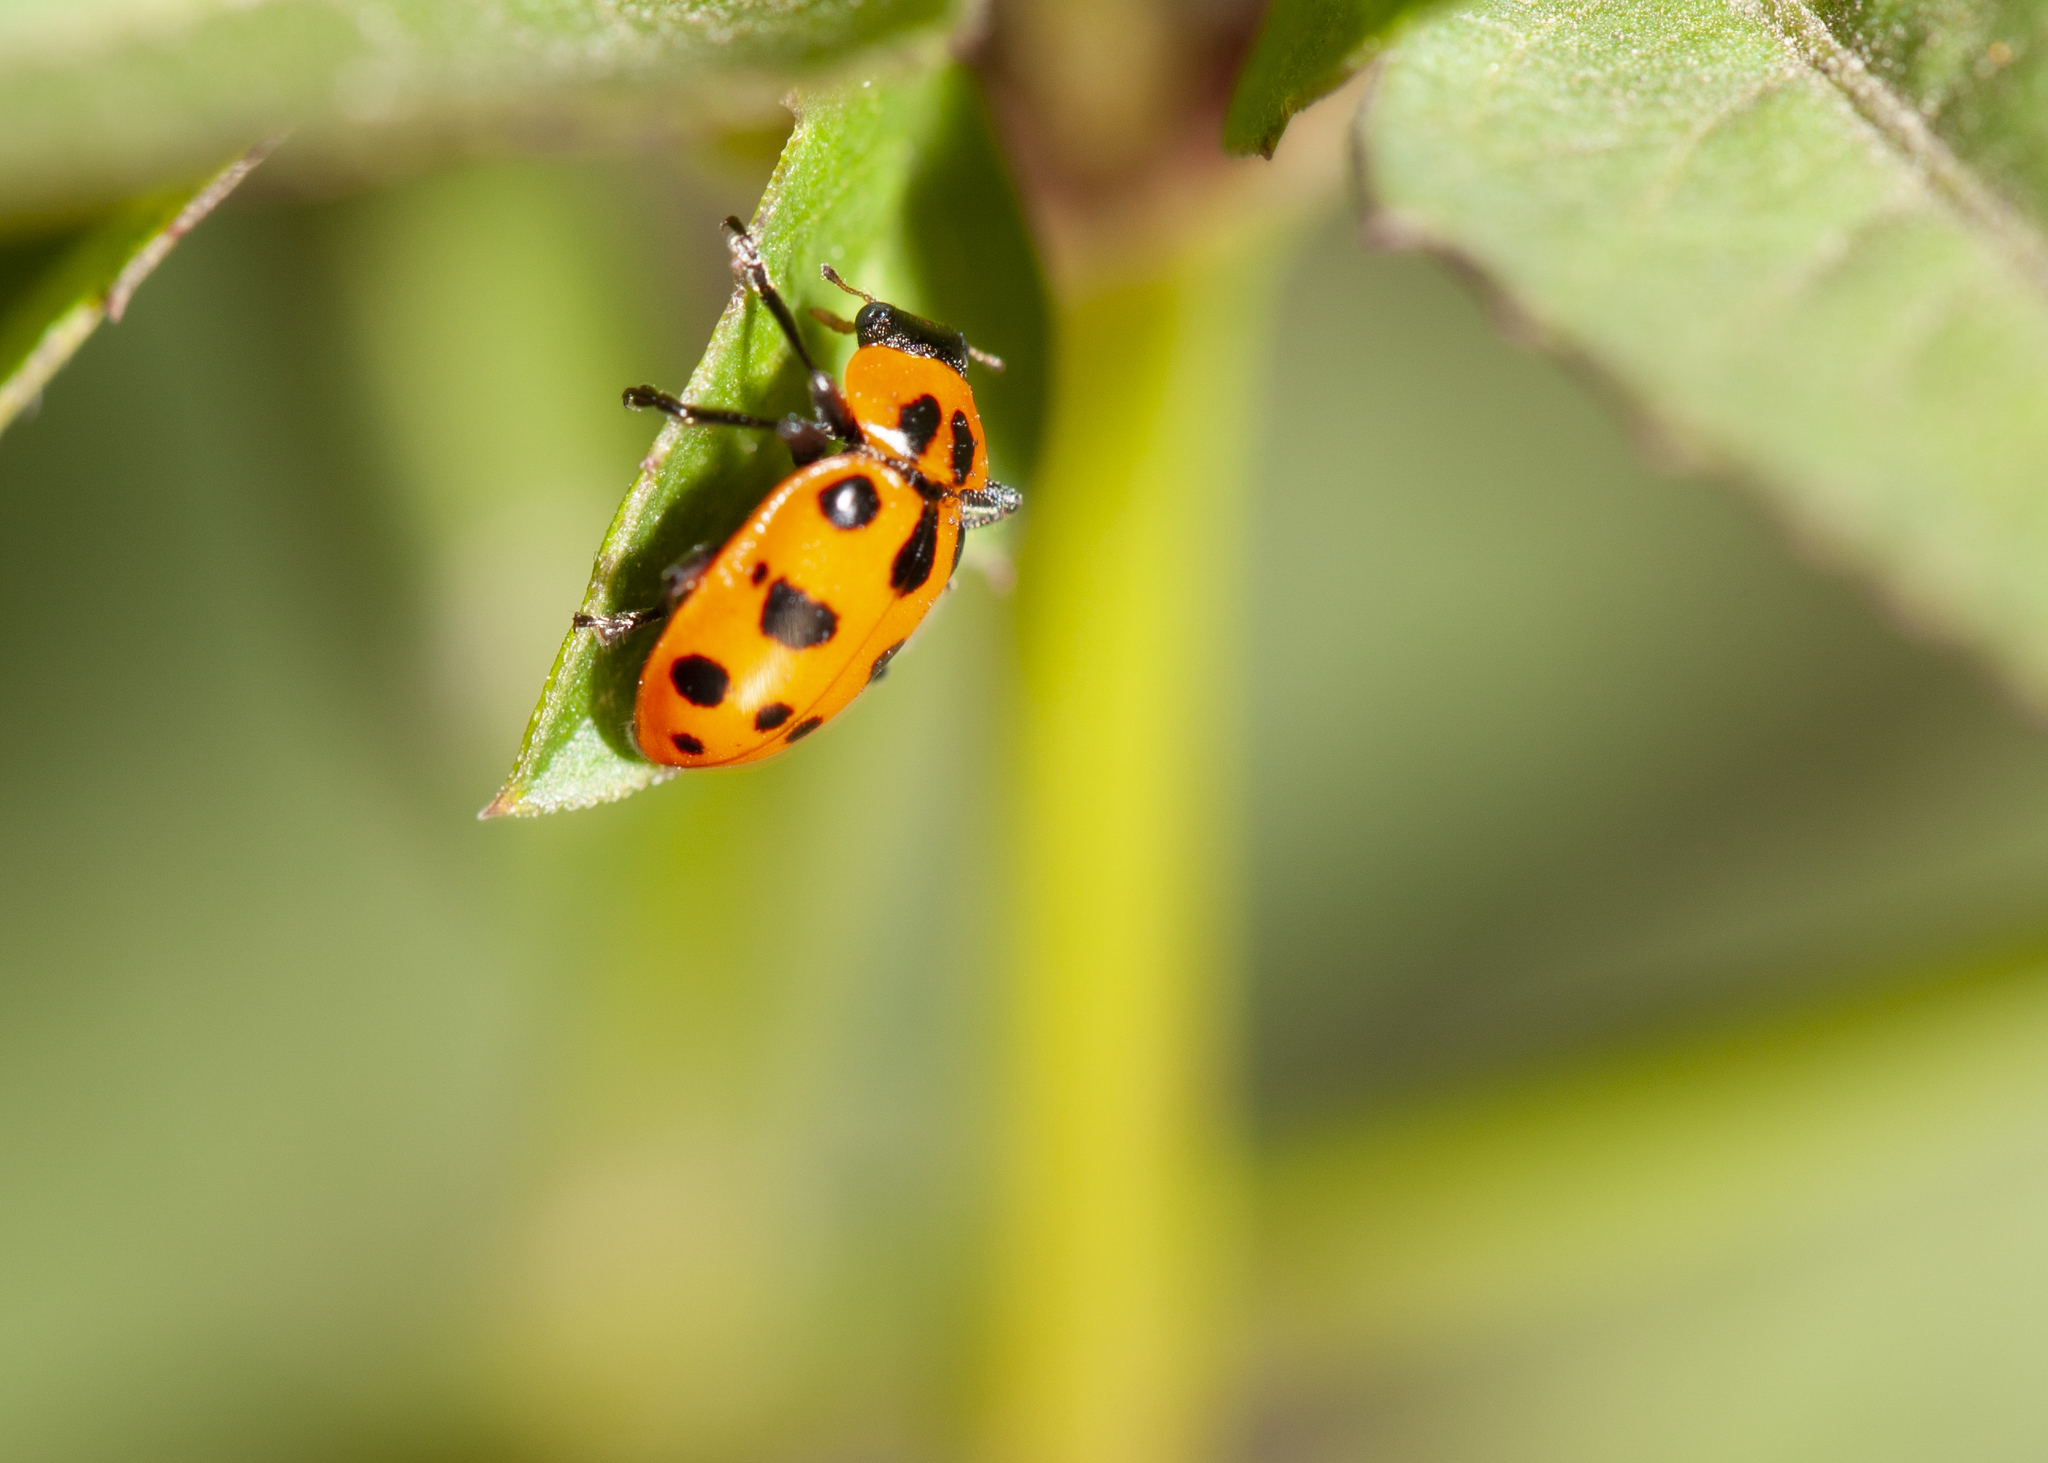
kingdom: Animalia
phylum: Arthropoda
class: Insecta
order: Coleoptera
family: Coccinellidae
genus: Coleomegilla
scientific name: Coleomegilla maculata
